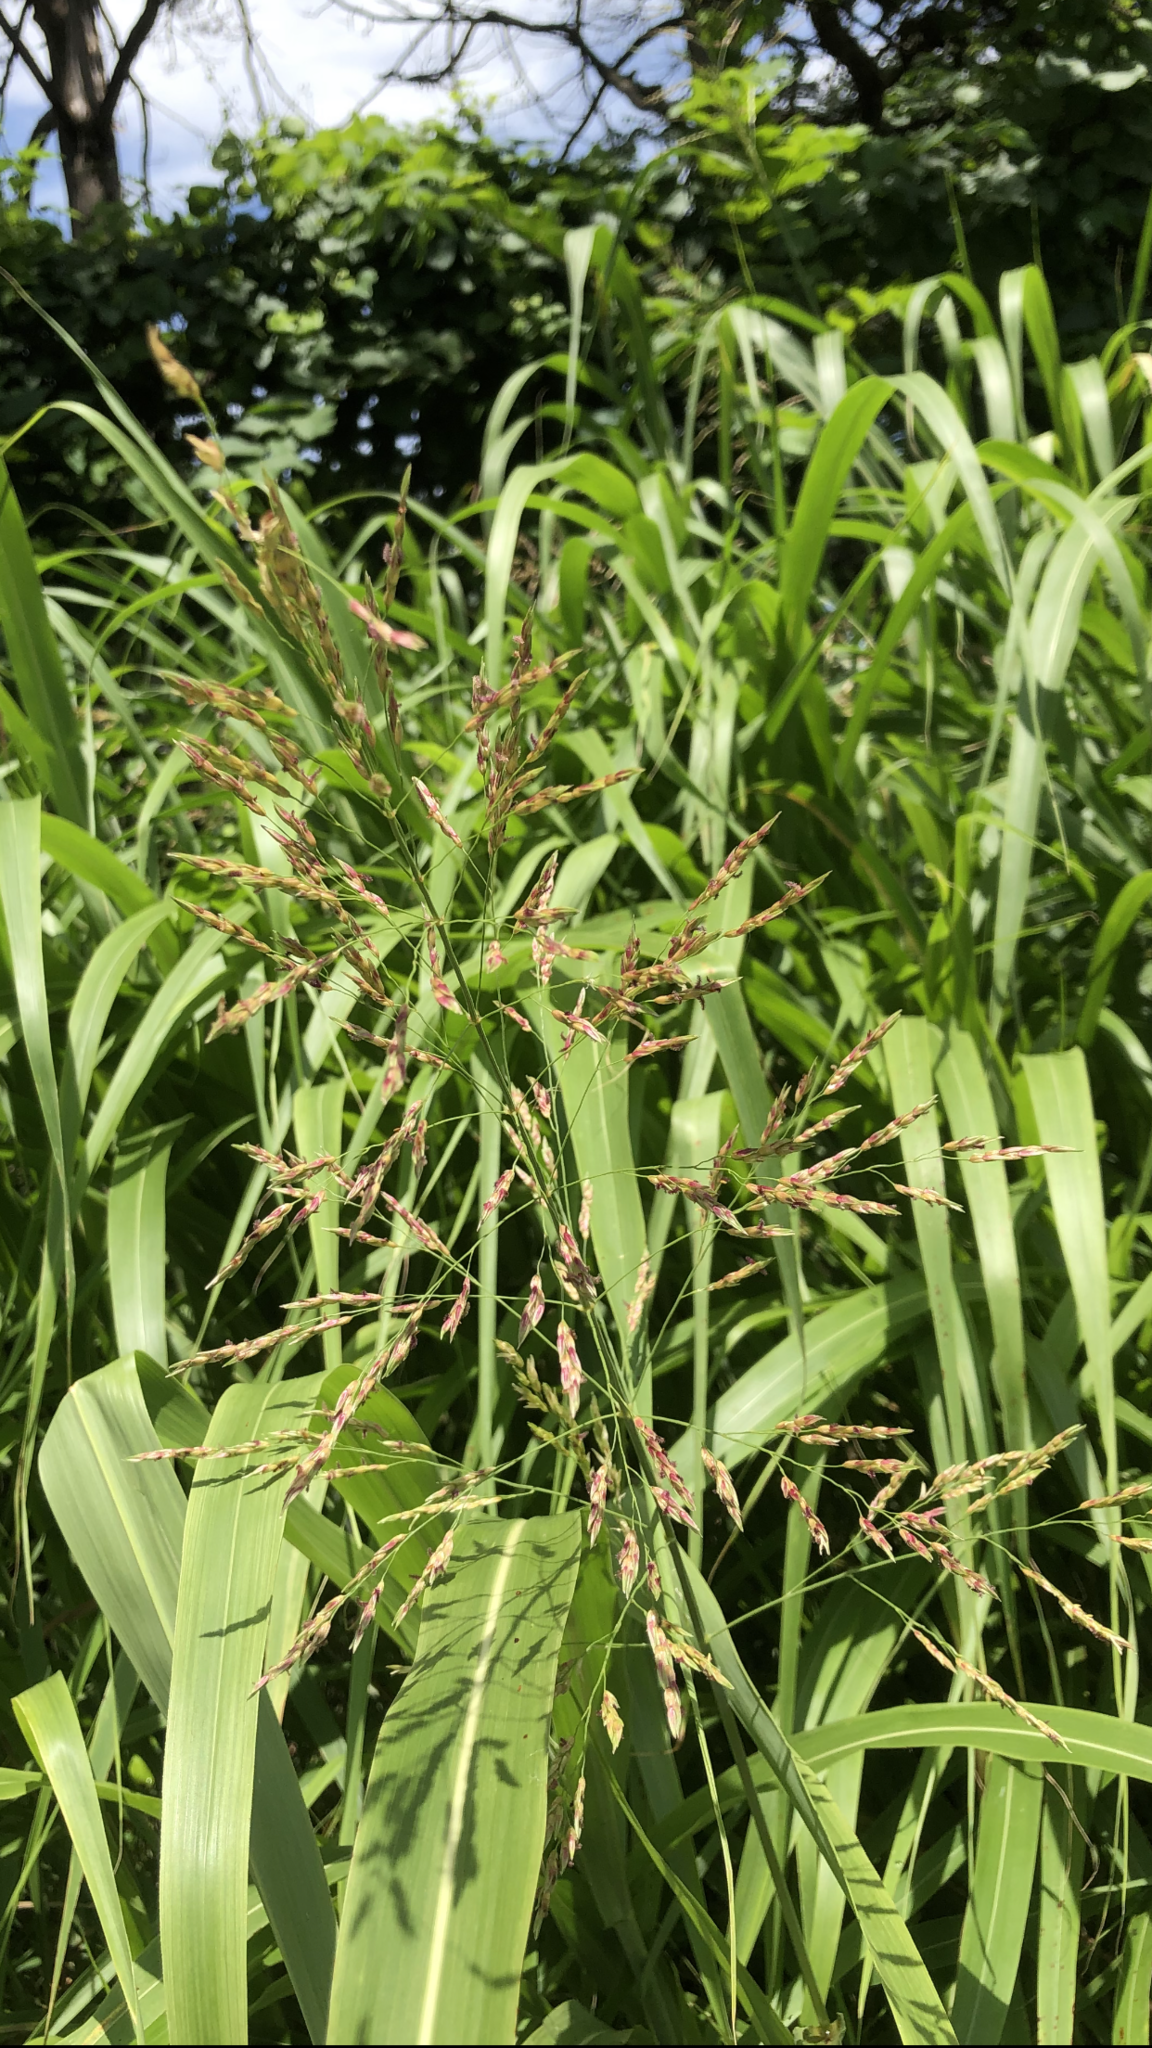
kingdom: Plantae
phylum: Tracheophyta
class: Liliopsida
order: Poales
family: Poaceae
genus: Sorghum
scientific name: Sorghum halepense
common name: Johnson-grass
